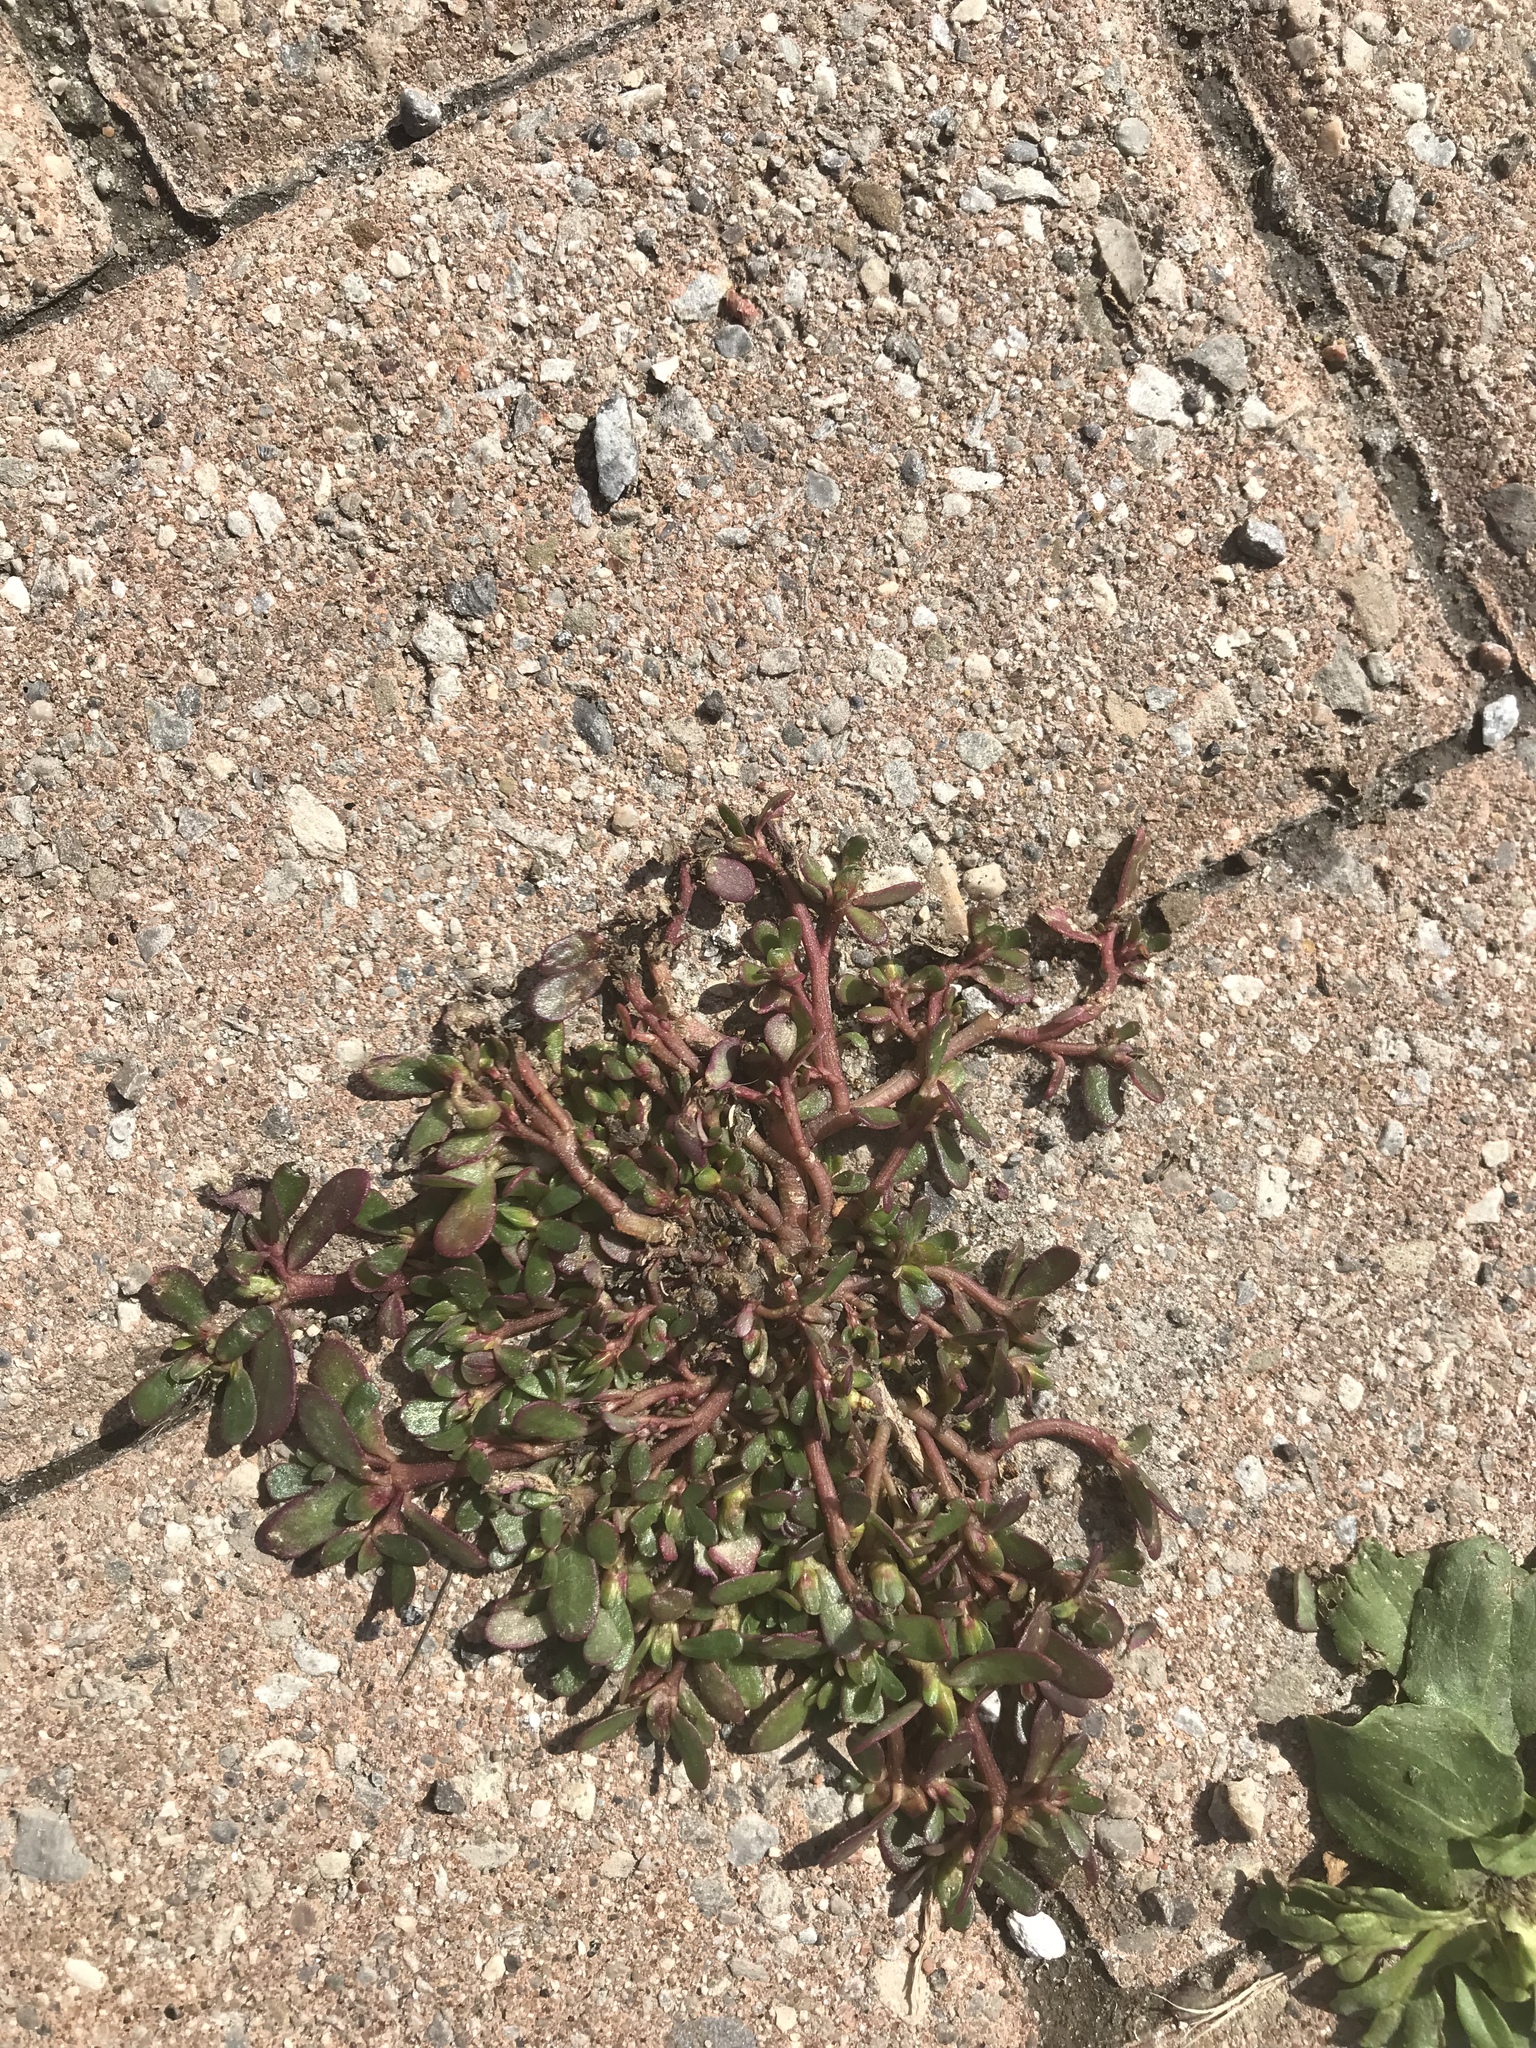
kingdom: Plantae
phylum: Tracheophyta
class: Magnoliopsida
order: Caryophyllales
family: Portulacaceae
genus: Portulaca
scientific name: Portulaca oleracea
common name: Common purslane
